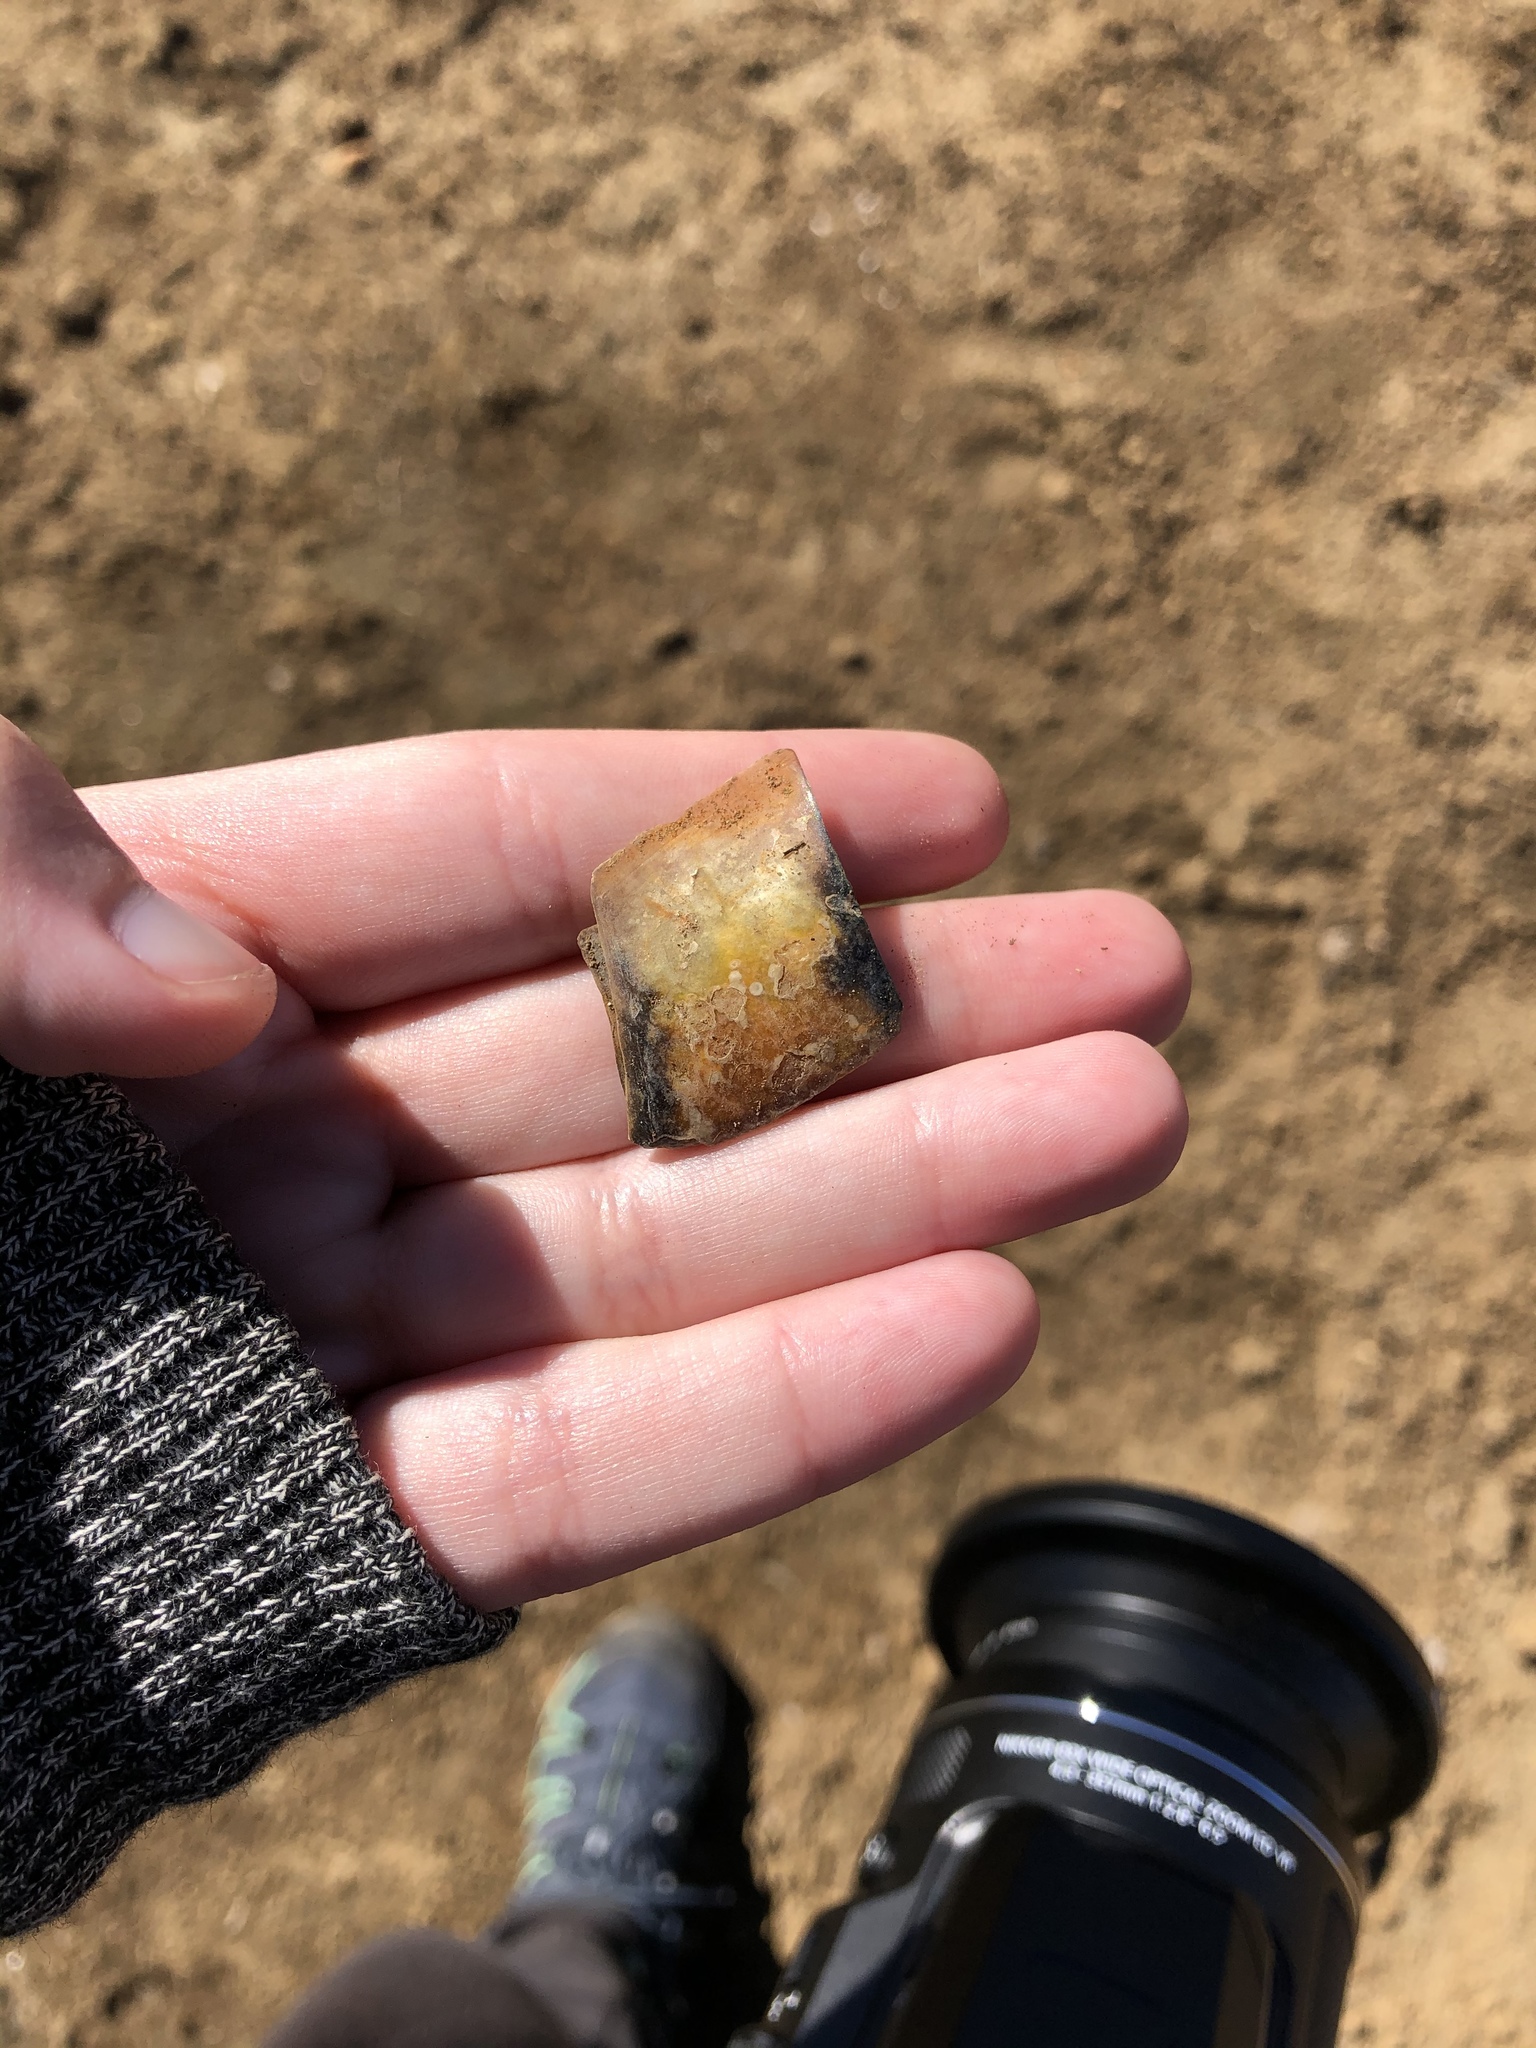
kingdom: Animalia
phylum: Chordata
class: Testudines
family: Emydidae
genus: Trachemys
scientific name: Trachemys scripta
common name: Slider
